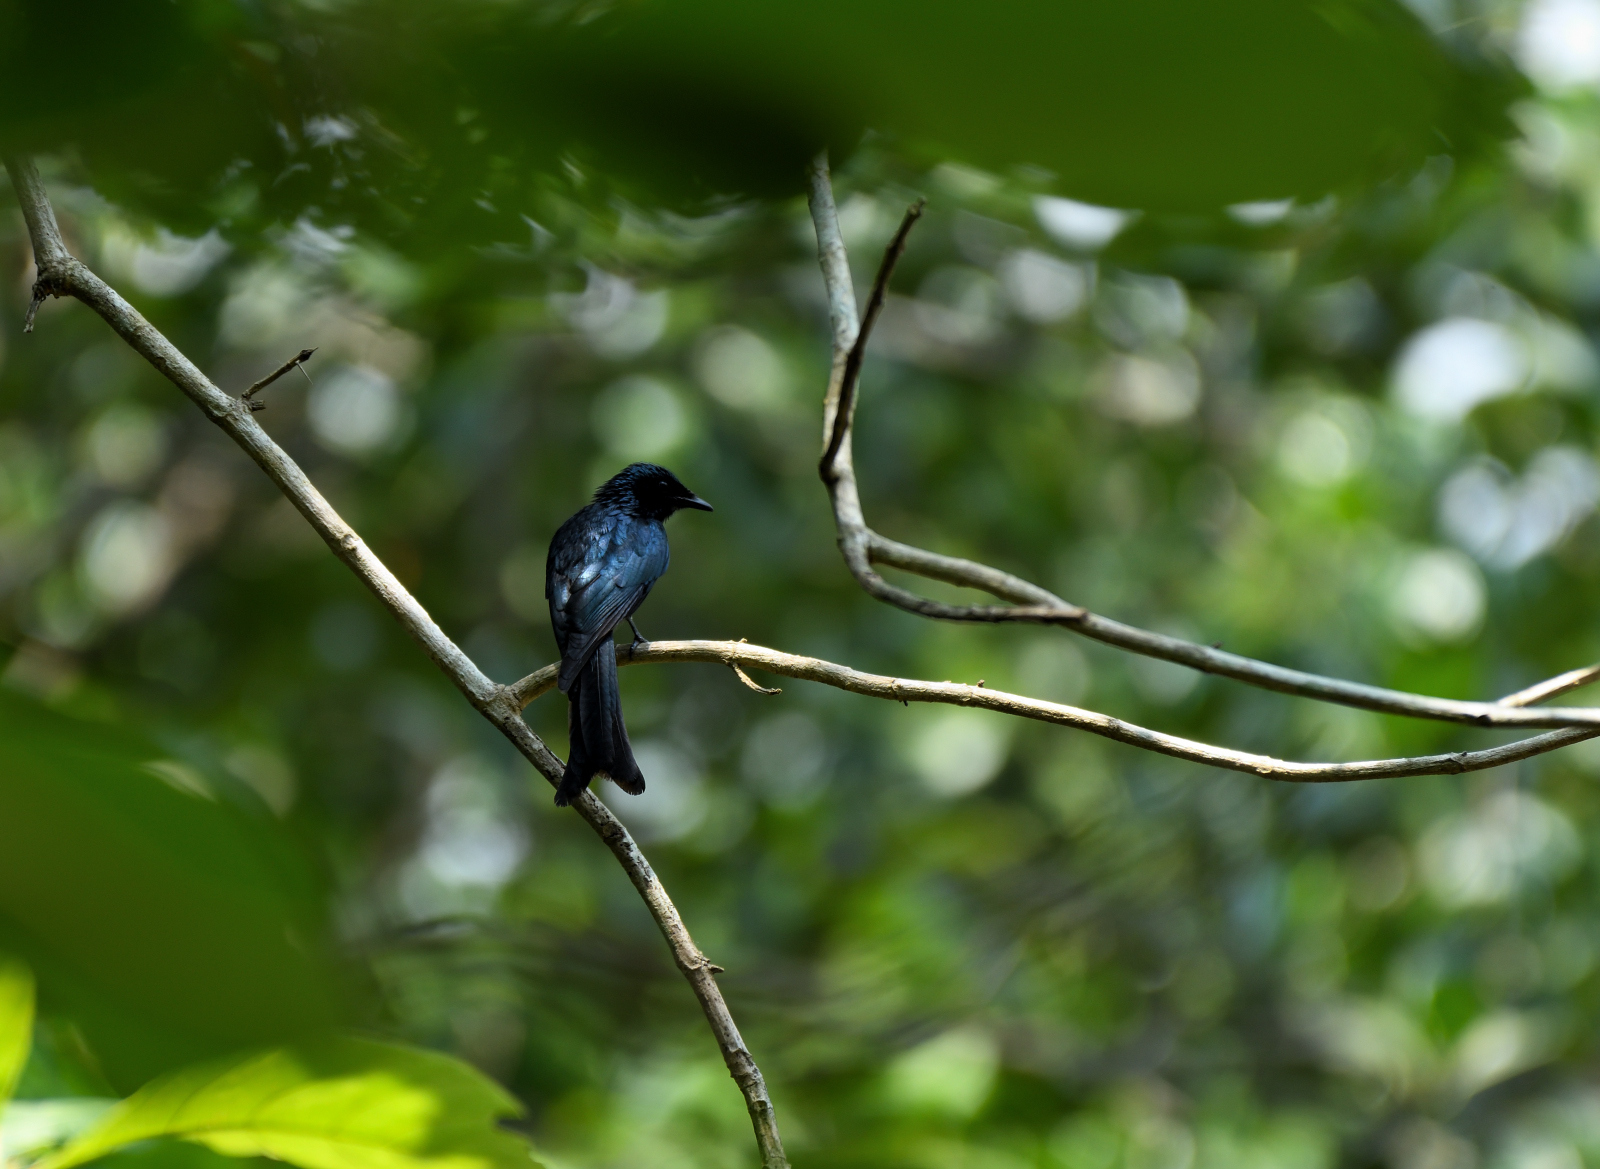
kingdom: Animalia
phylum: Chordata
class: Aves
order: Passeriformes
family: Dicruridae
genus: Dicrurus
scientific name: Dicrurus aeneus
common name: Bronzed drongo
